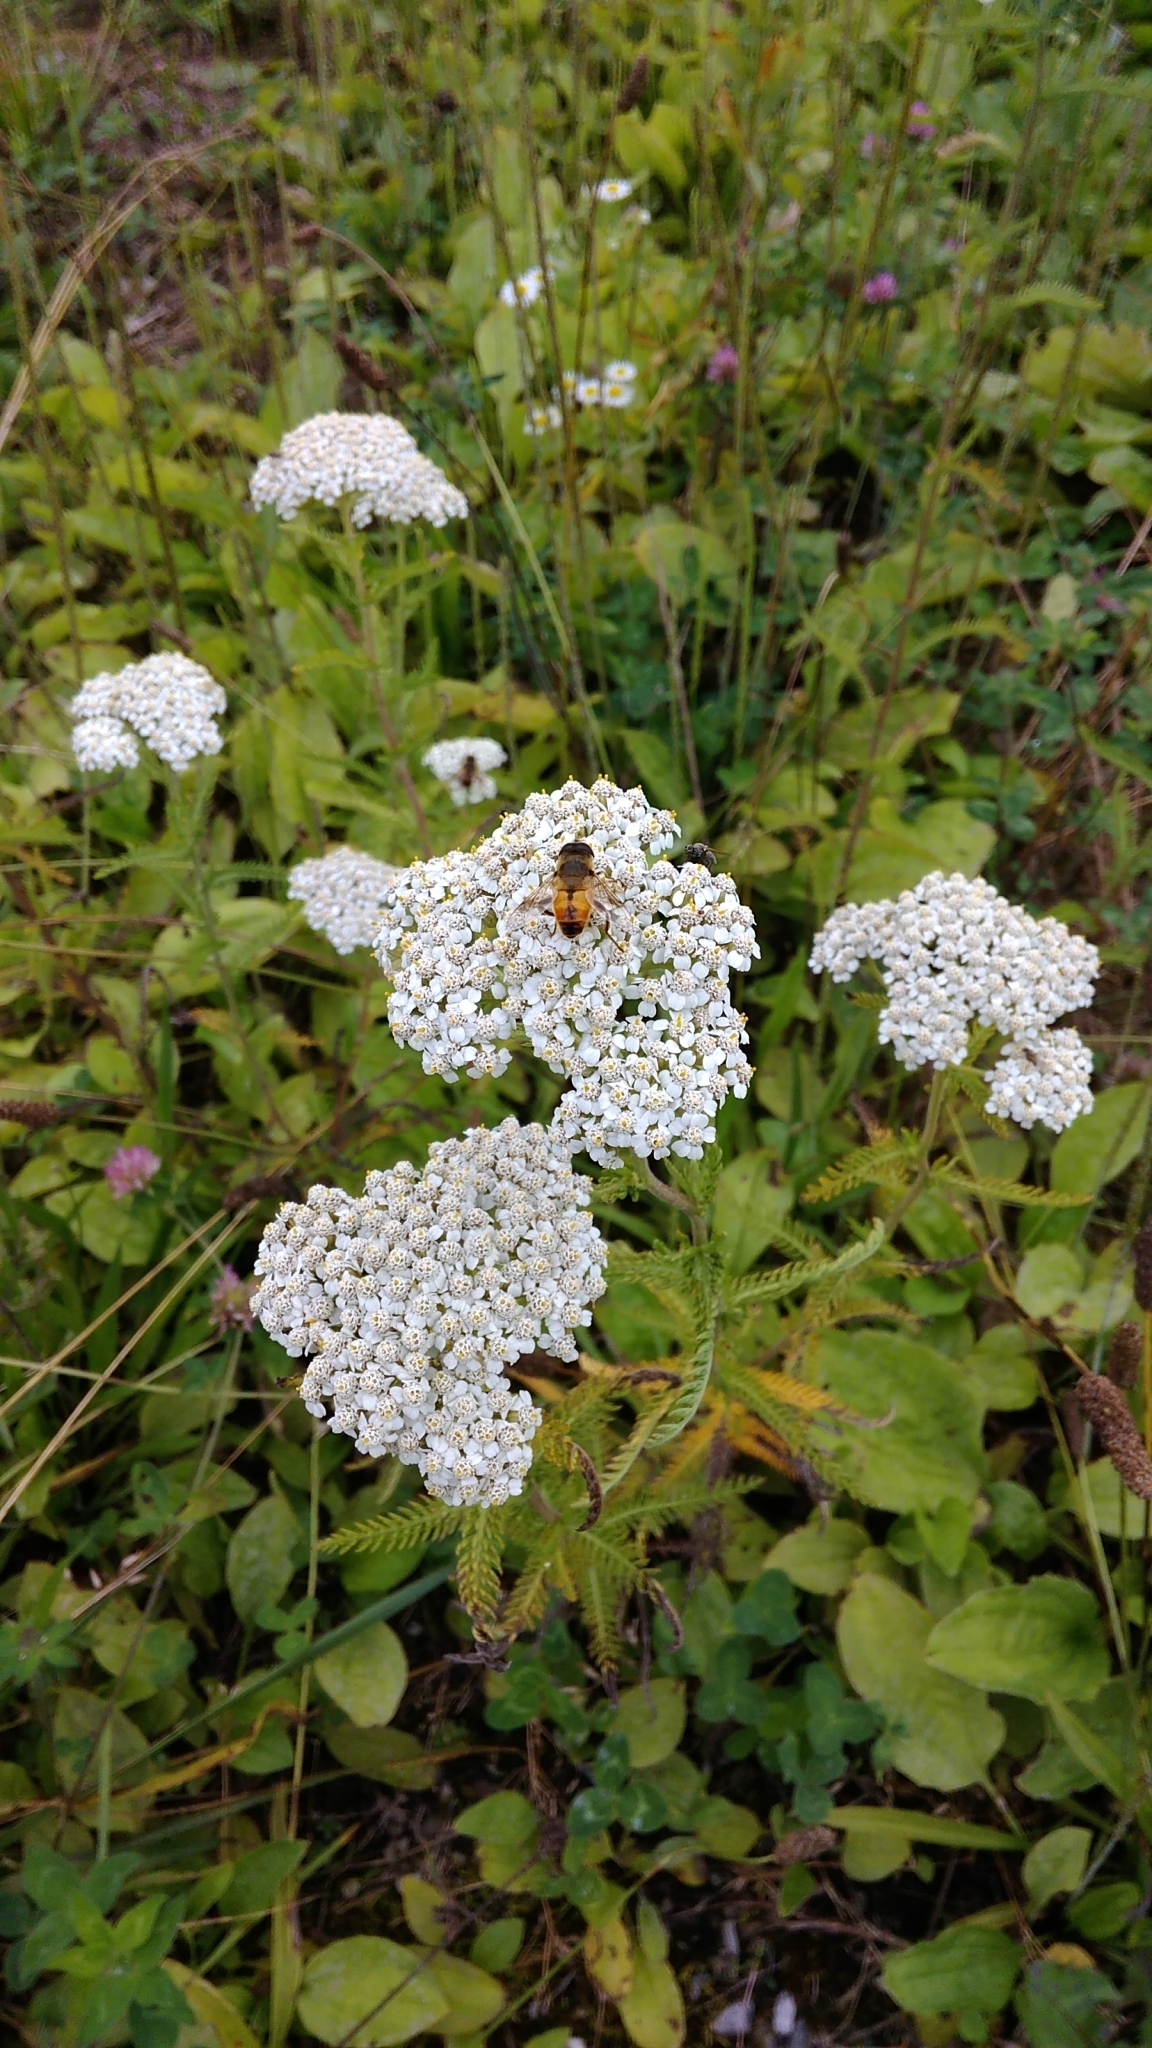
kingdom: Plantae
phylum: Tracheophyta
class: Magnoliopsida
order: Asterales
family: Asteraceae
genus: Achillea
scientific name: Achillea millefolium
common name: Yarrow
